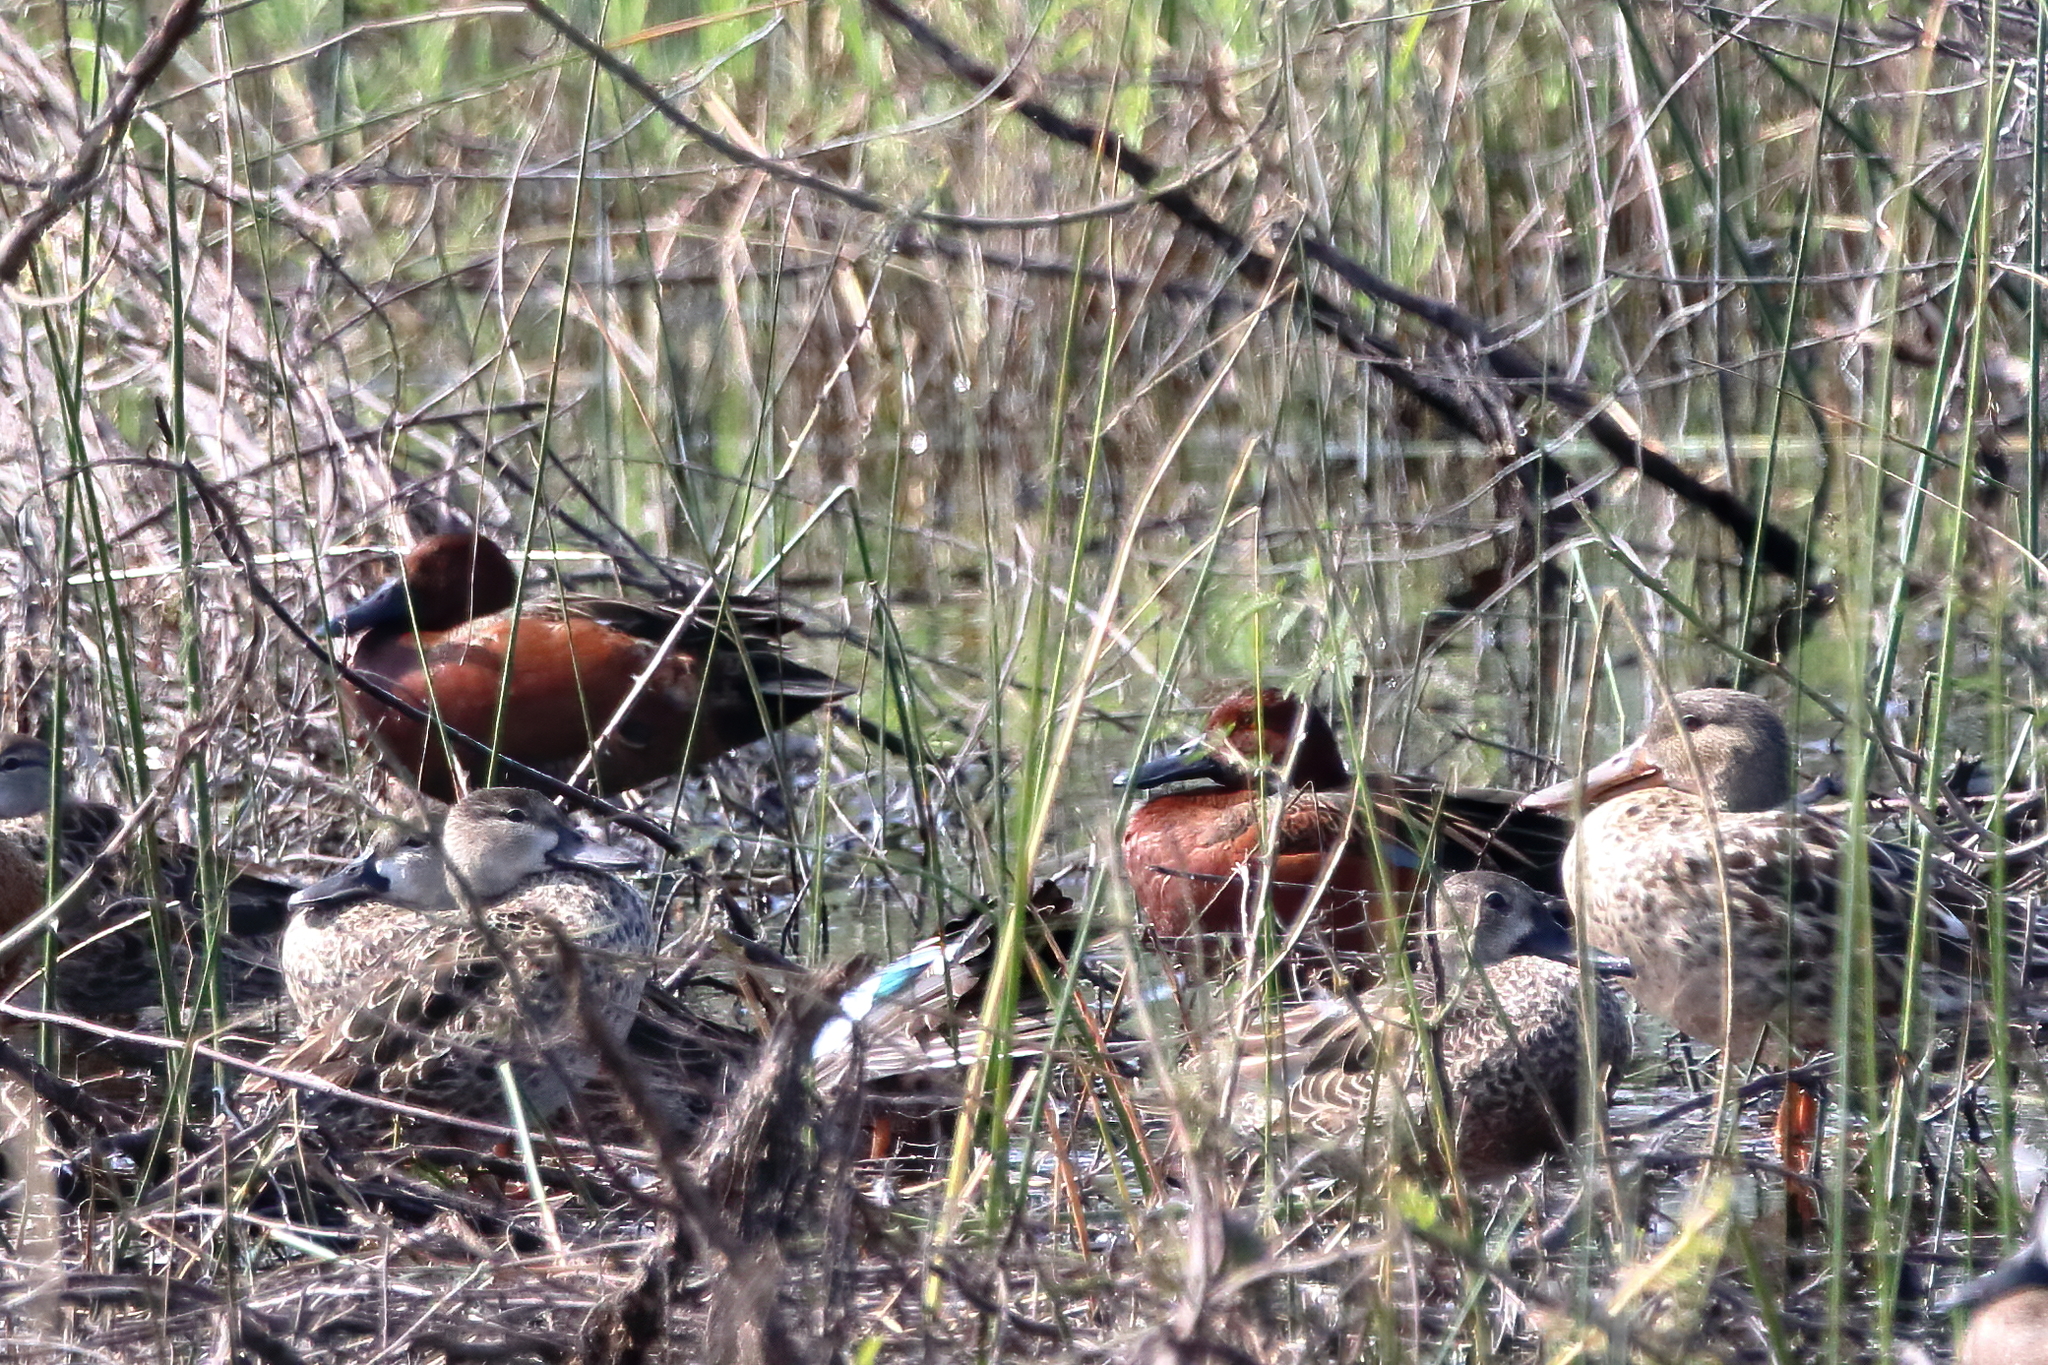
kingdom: Animalia
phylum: Chordata
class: Aves
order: Anseriformes
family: Anatidae
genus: Spatula
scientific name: Spatula cyanoptera
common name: Cinnamon teal
